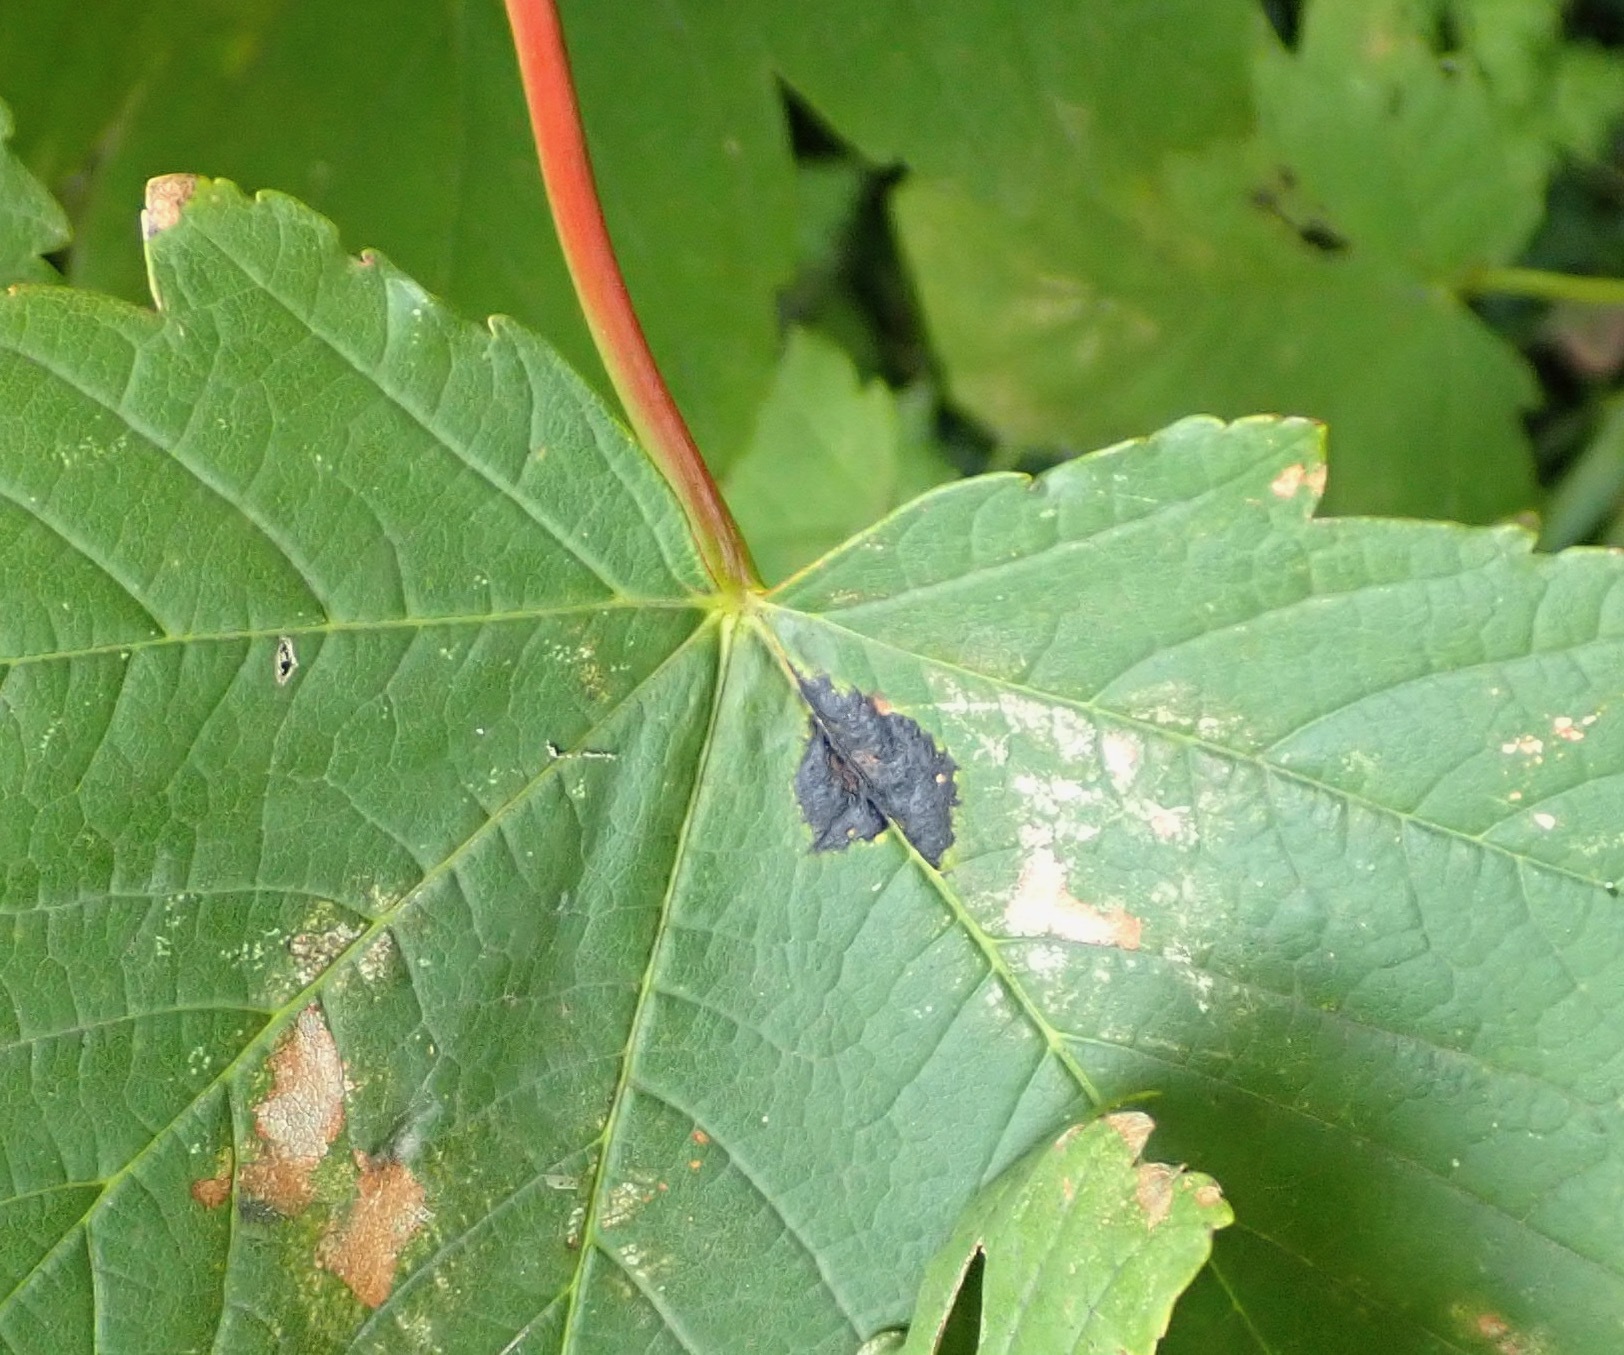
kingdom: Fungi
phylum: Ascomycota
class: Leotiomycetes
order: Rhytismatales
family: Rhytismataceae
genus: Rhytisma
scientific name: Rhytisma acerinum
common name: European tar spot
